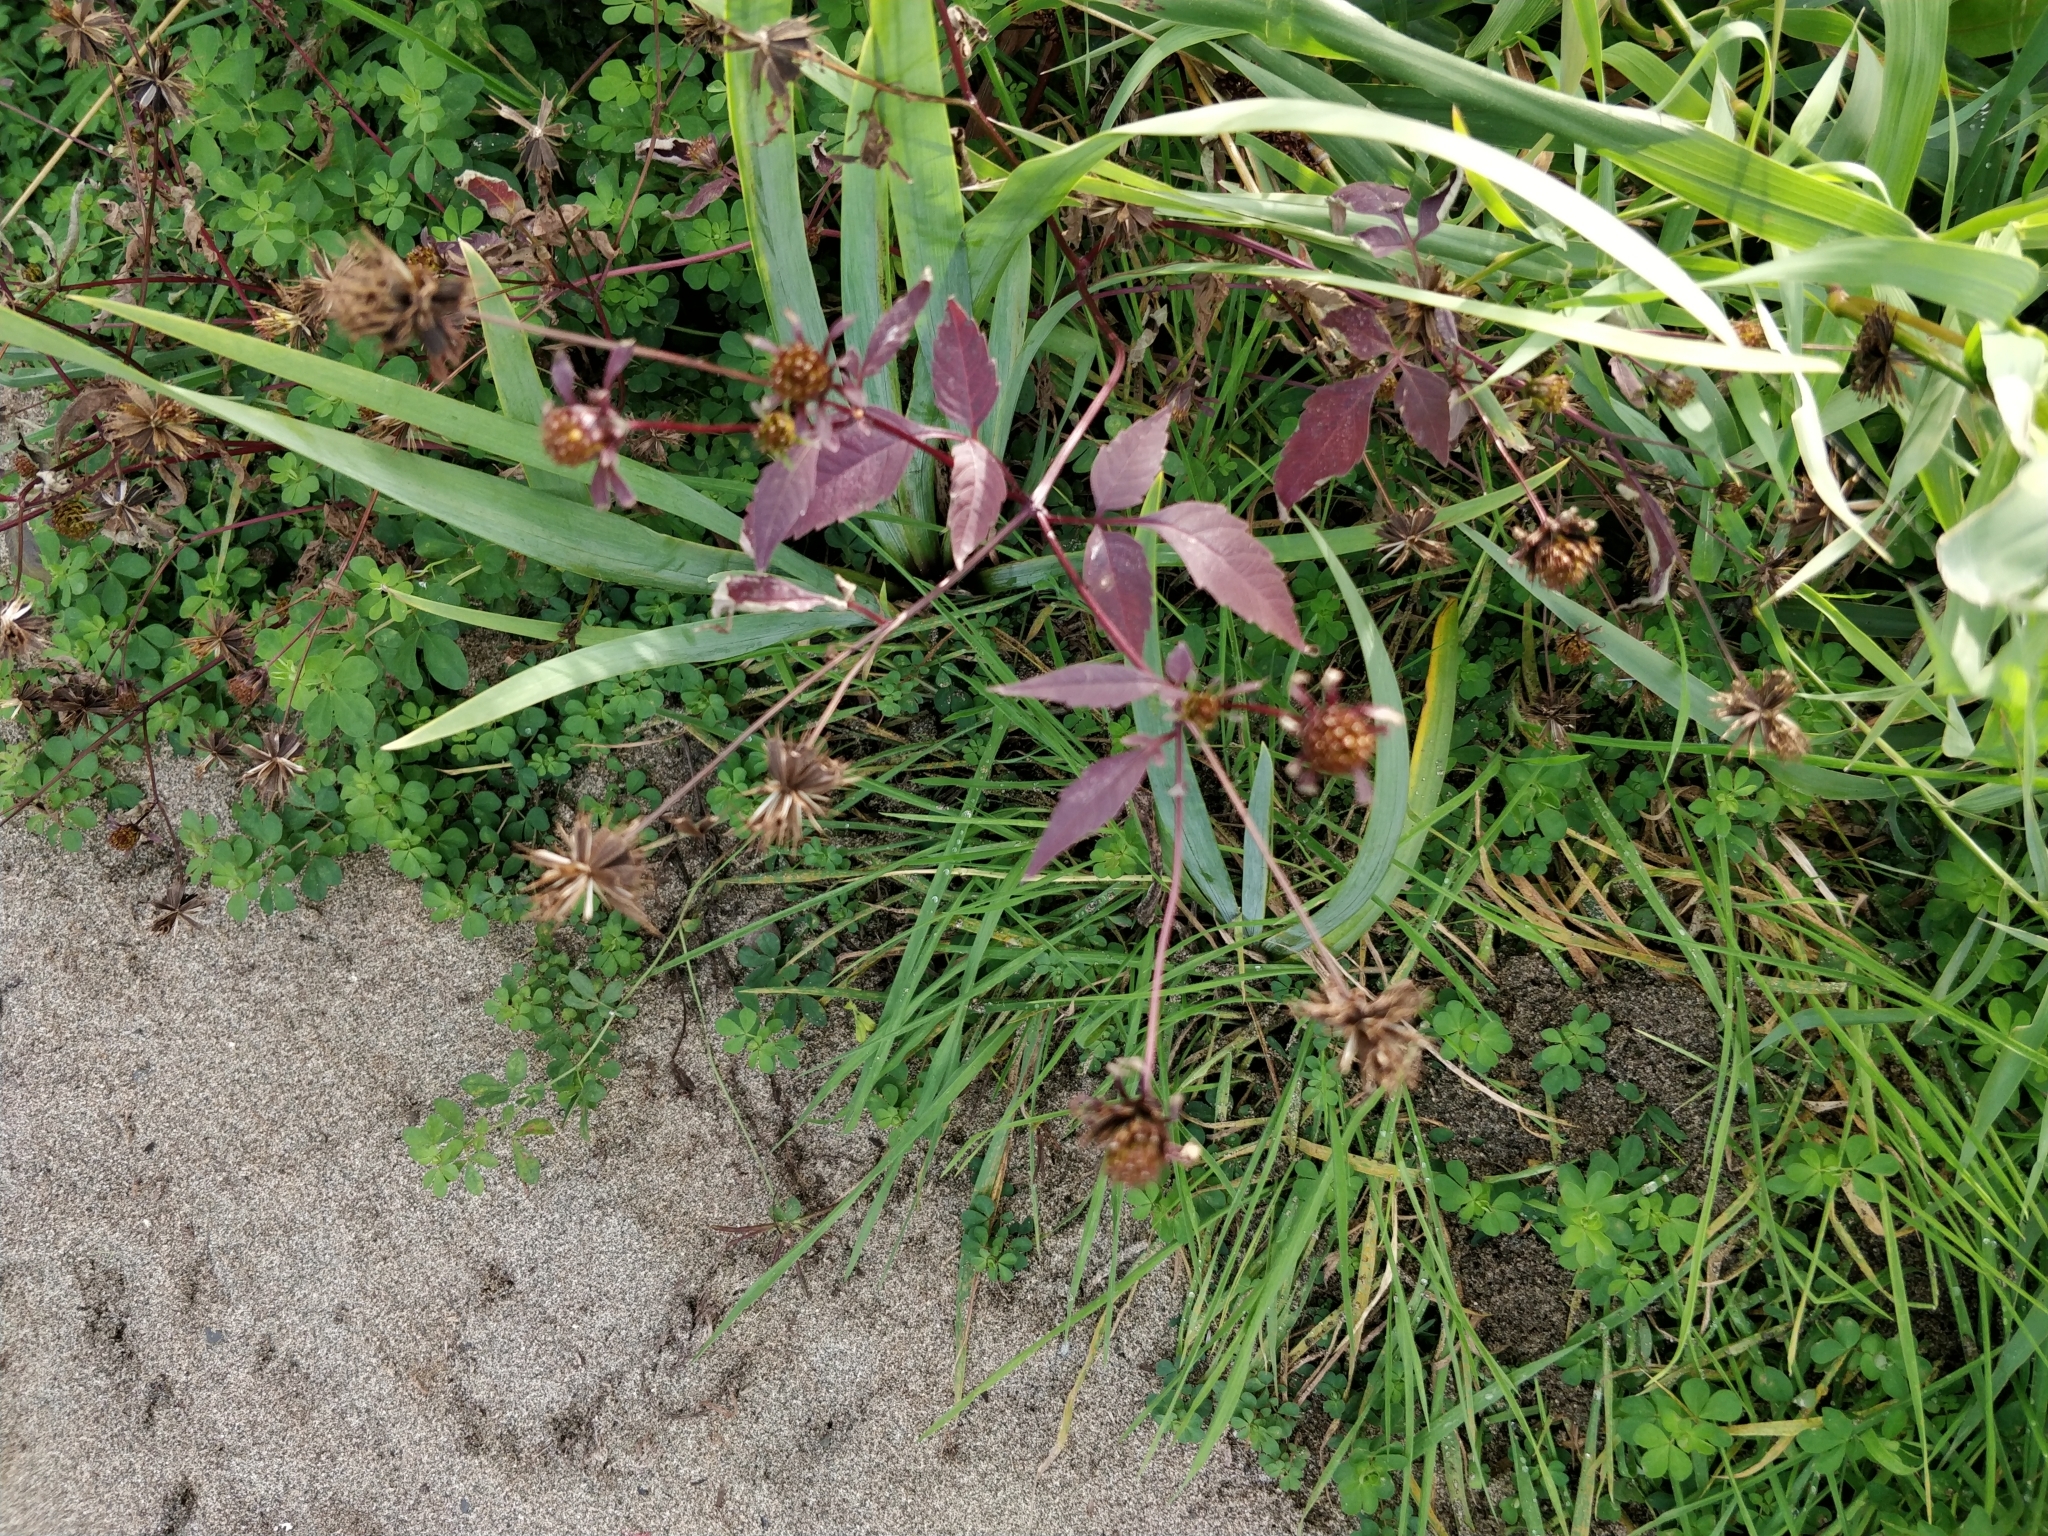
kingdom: Plantae
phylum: Tracheophyta
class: Magnoliopsida
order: Boraginales
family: Boraginaceae
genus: Myosotis
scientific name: Myosotis scorpioides
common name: Water forget-me-not
